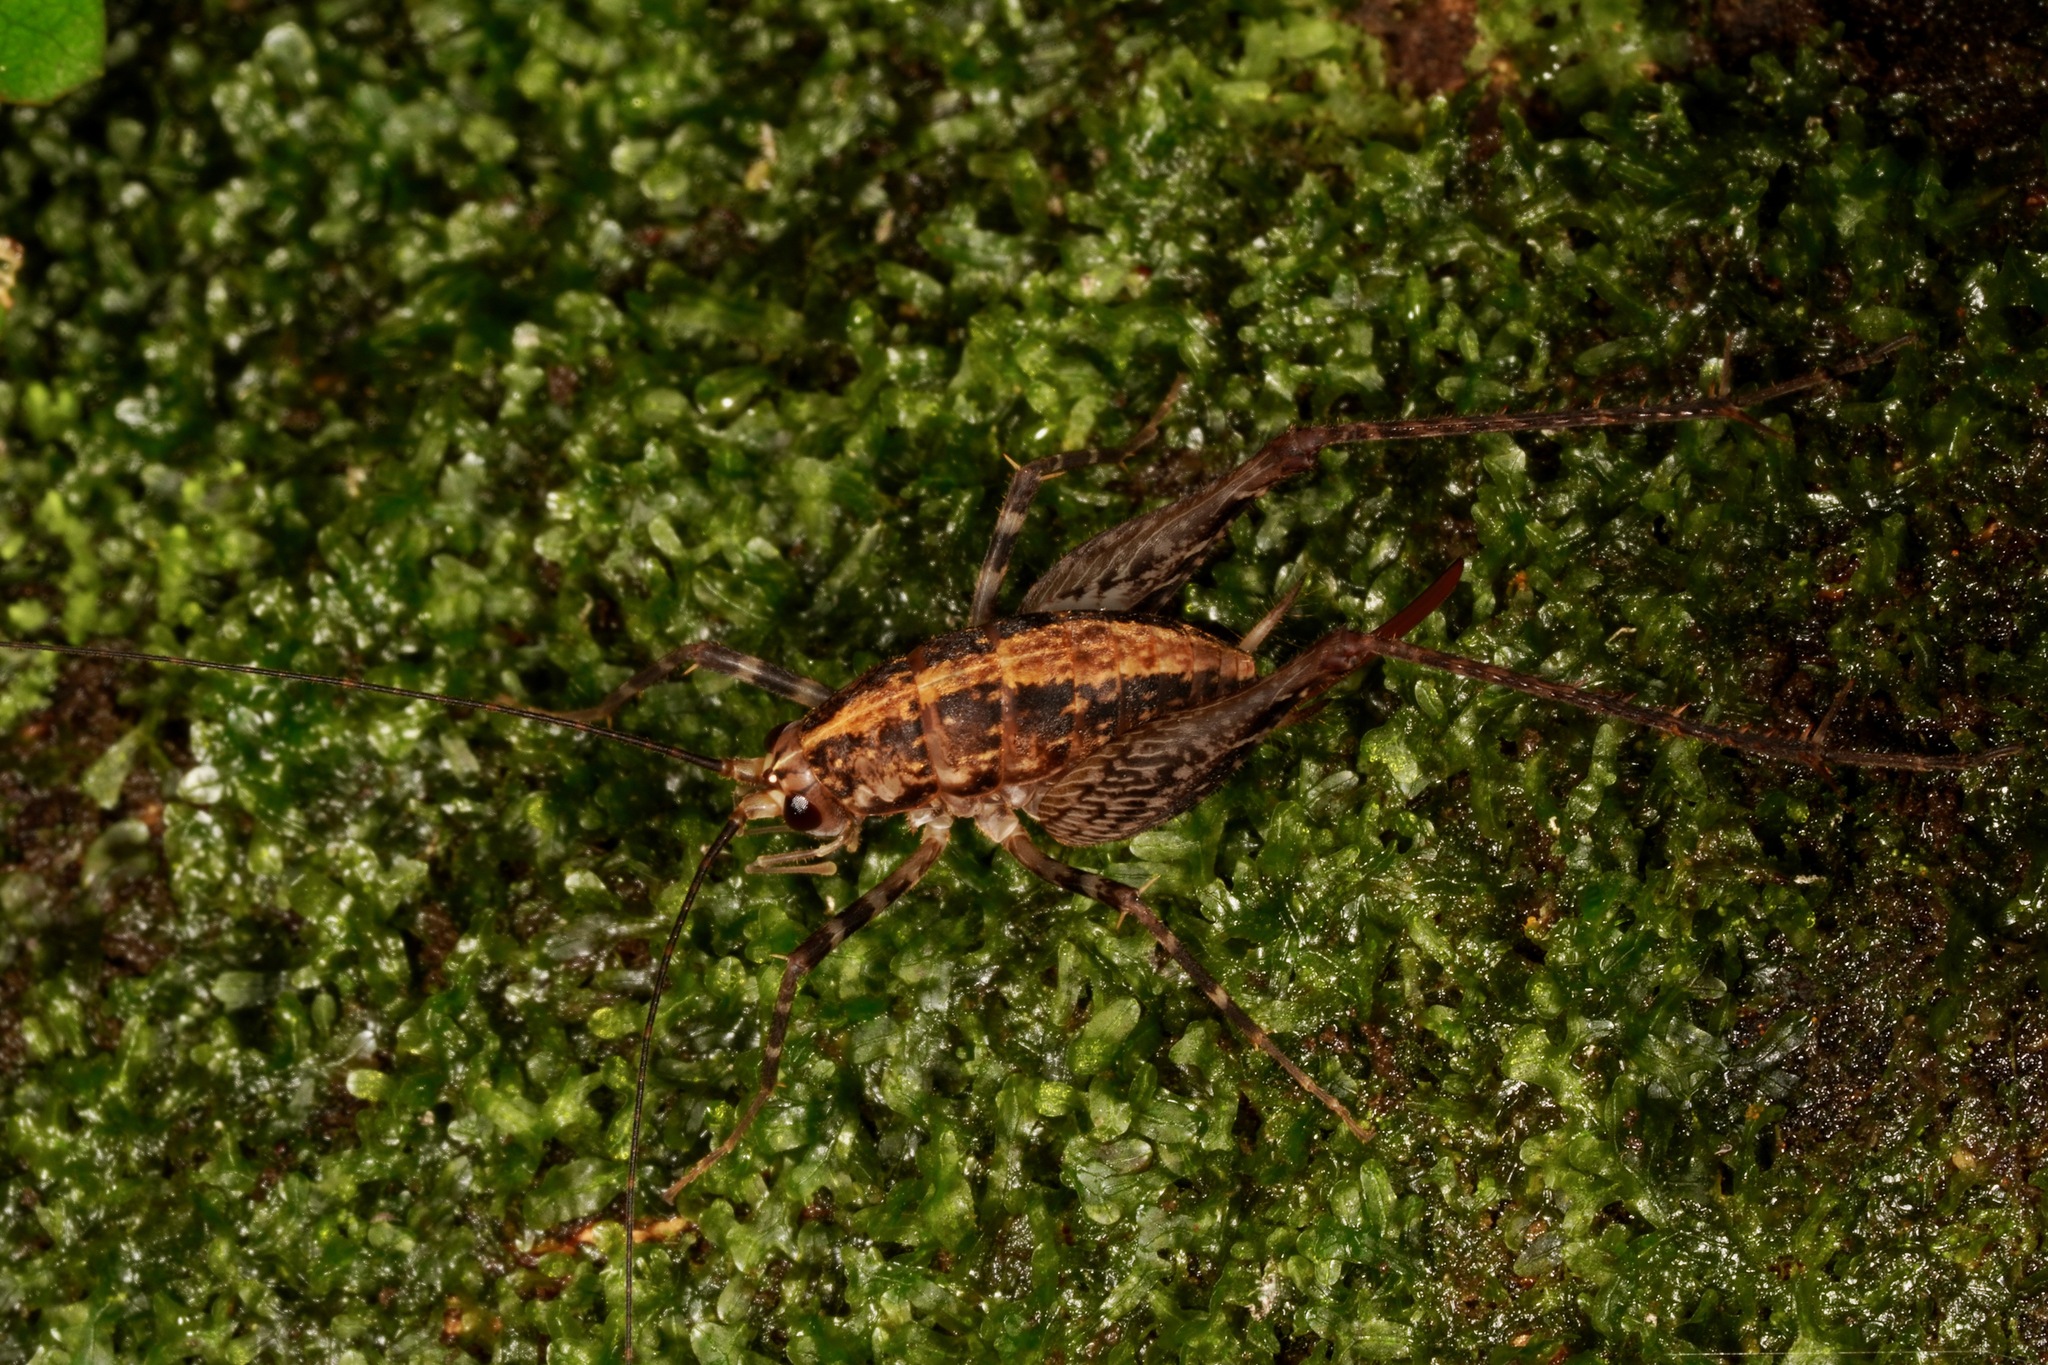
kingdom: Animalia
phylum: Arthropoda
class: Insecta
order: Orthoptera
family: Rhaphidophoridae
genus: Pleioplectron
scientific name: Pleioplectron hudsoni
